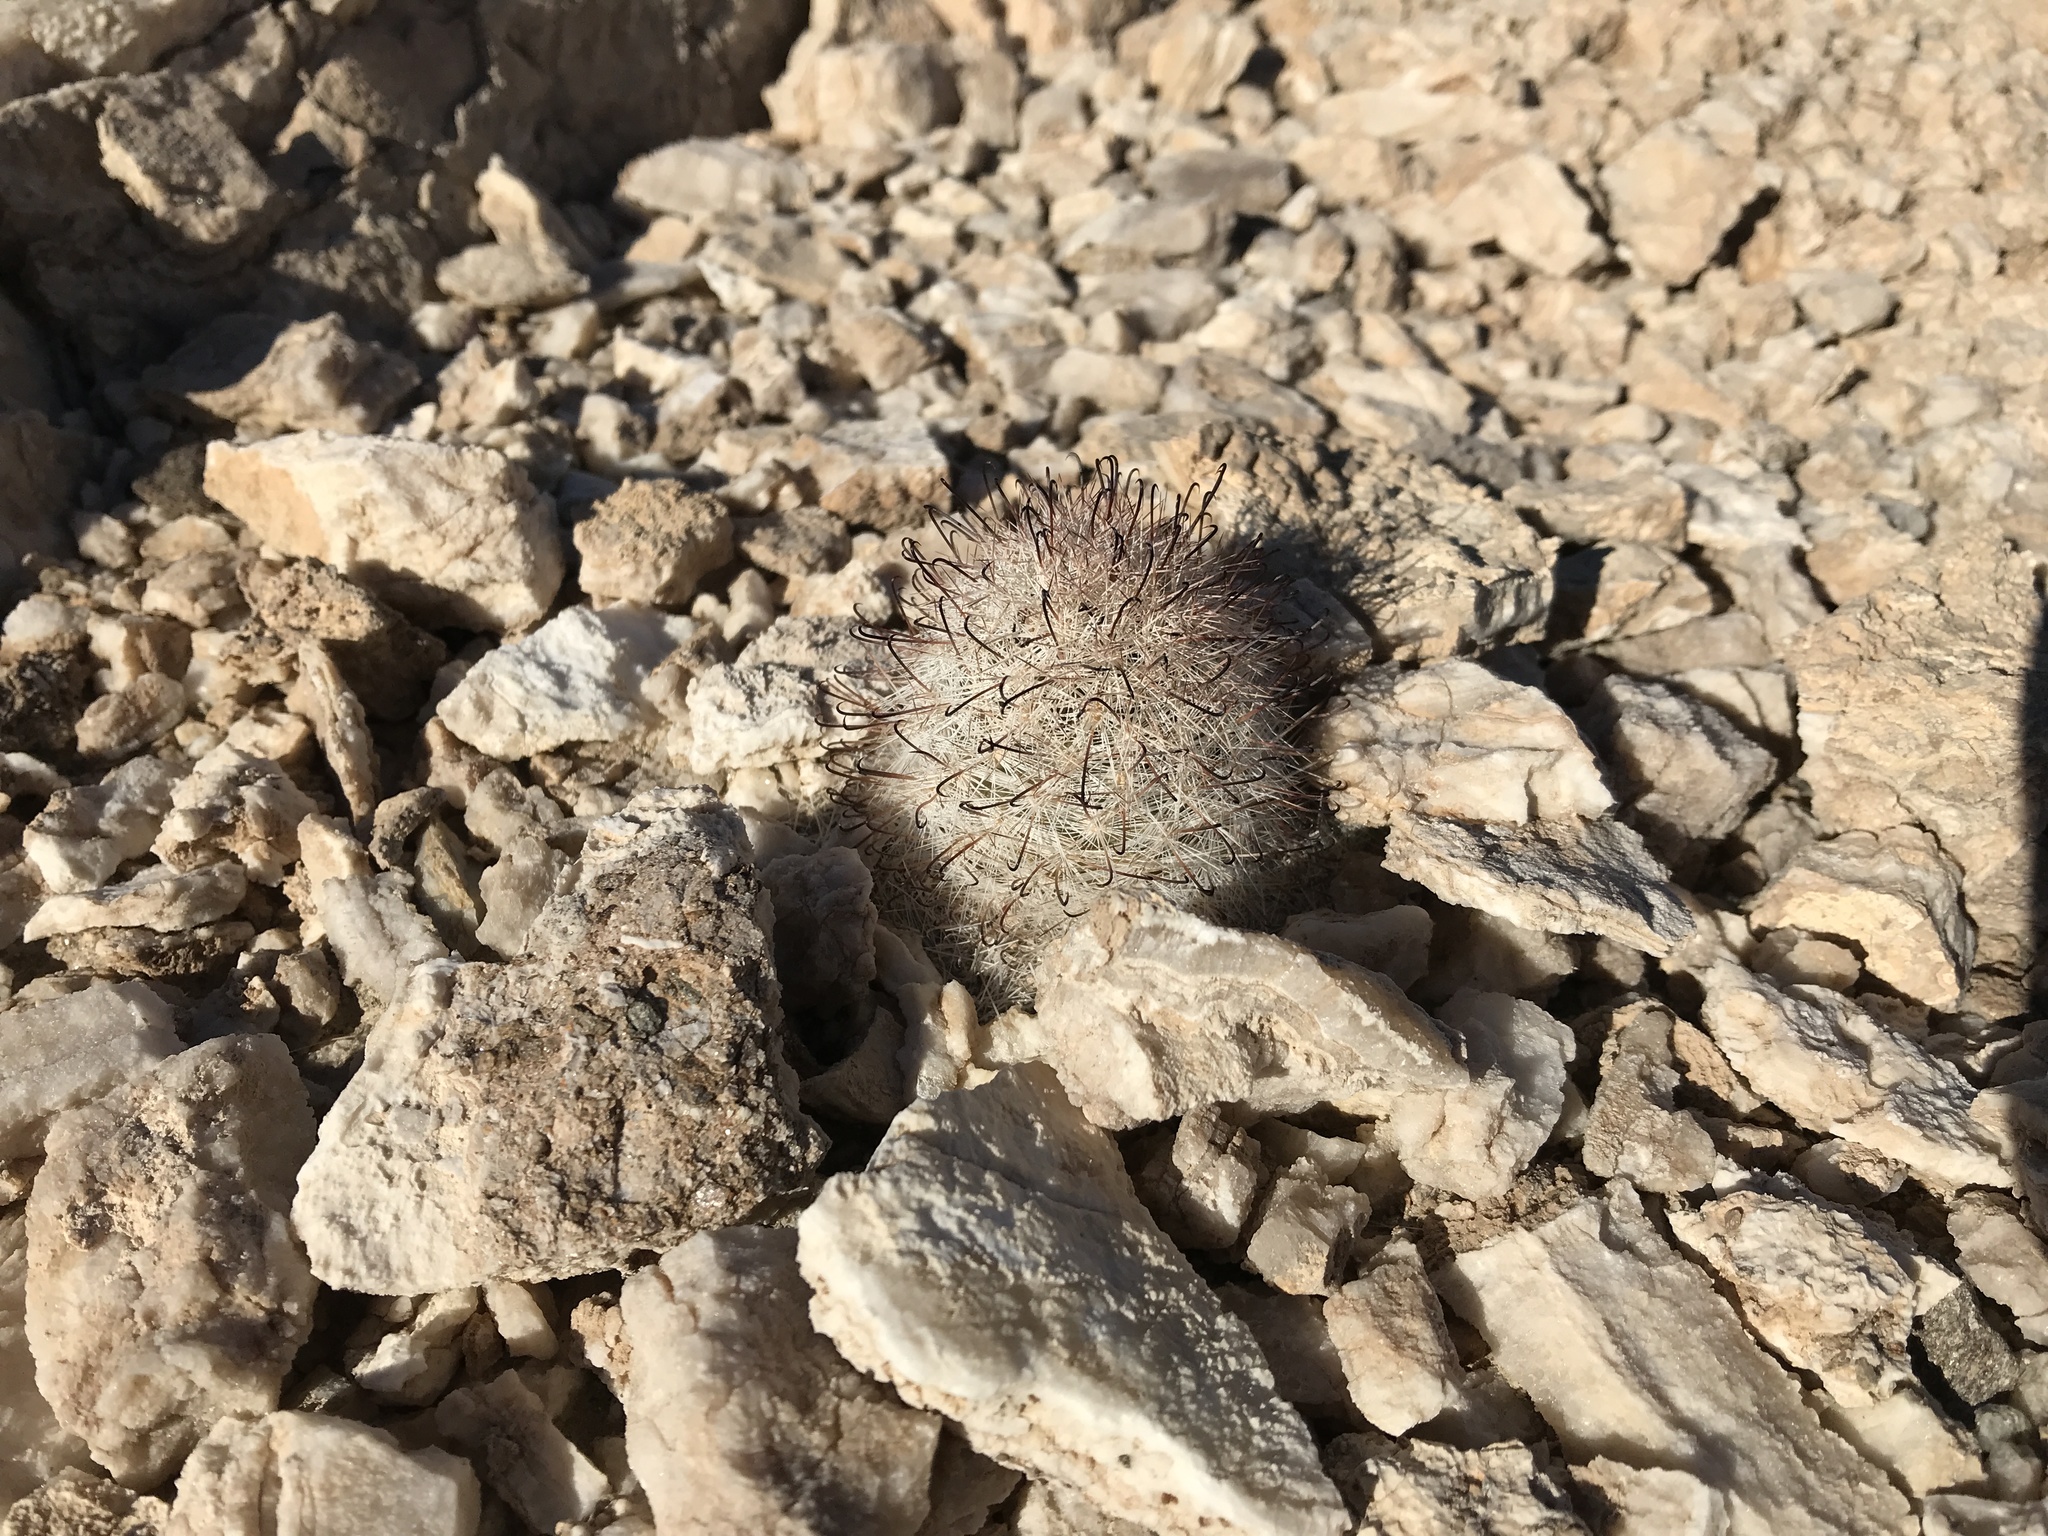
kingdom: Plantae
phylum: Tracheophyta
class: Magnoliopsida
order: Caryophyllales
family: Cactaceae
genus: Cochemiea
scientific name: Cochemiea tetrancistra
